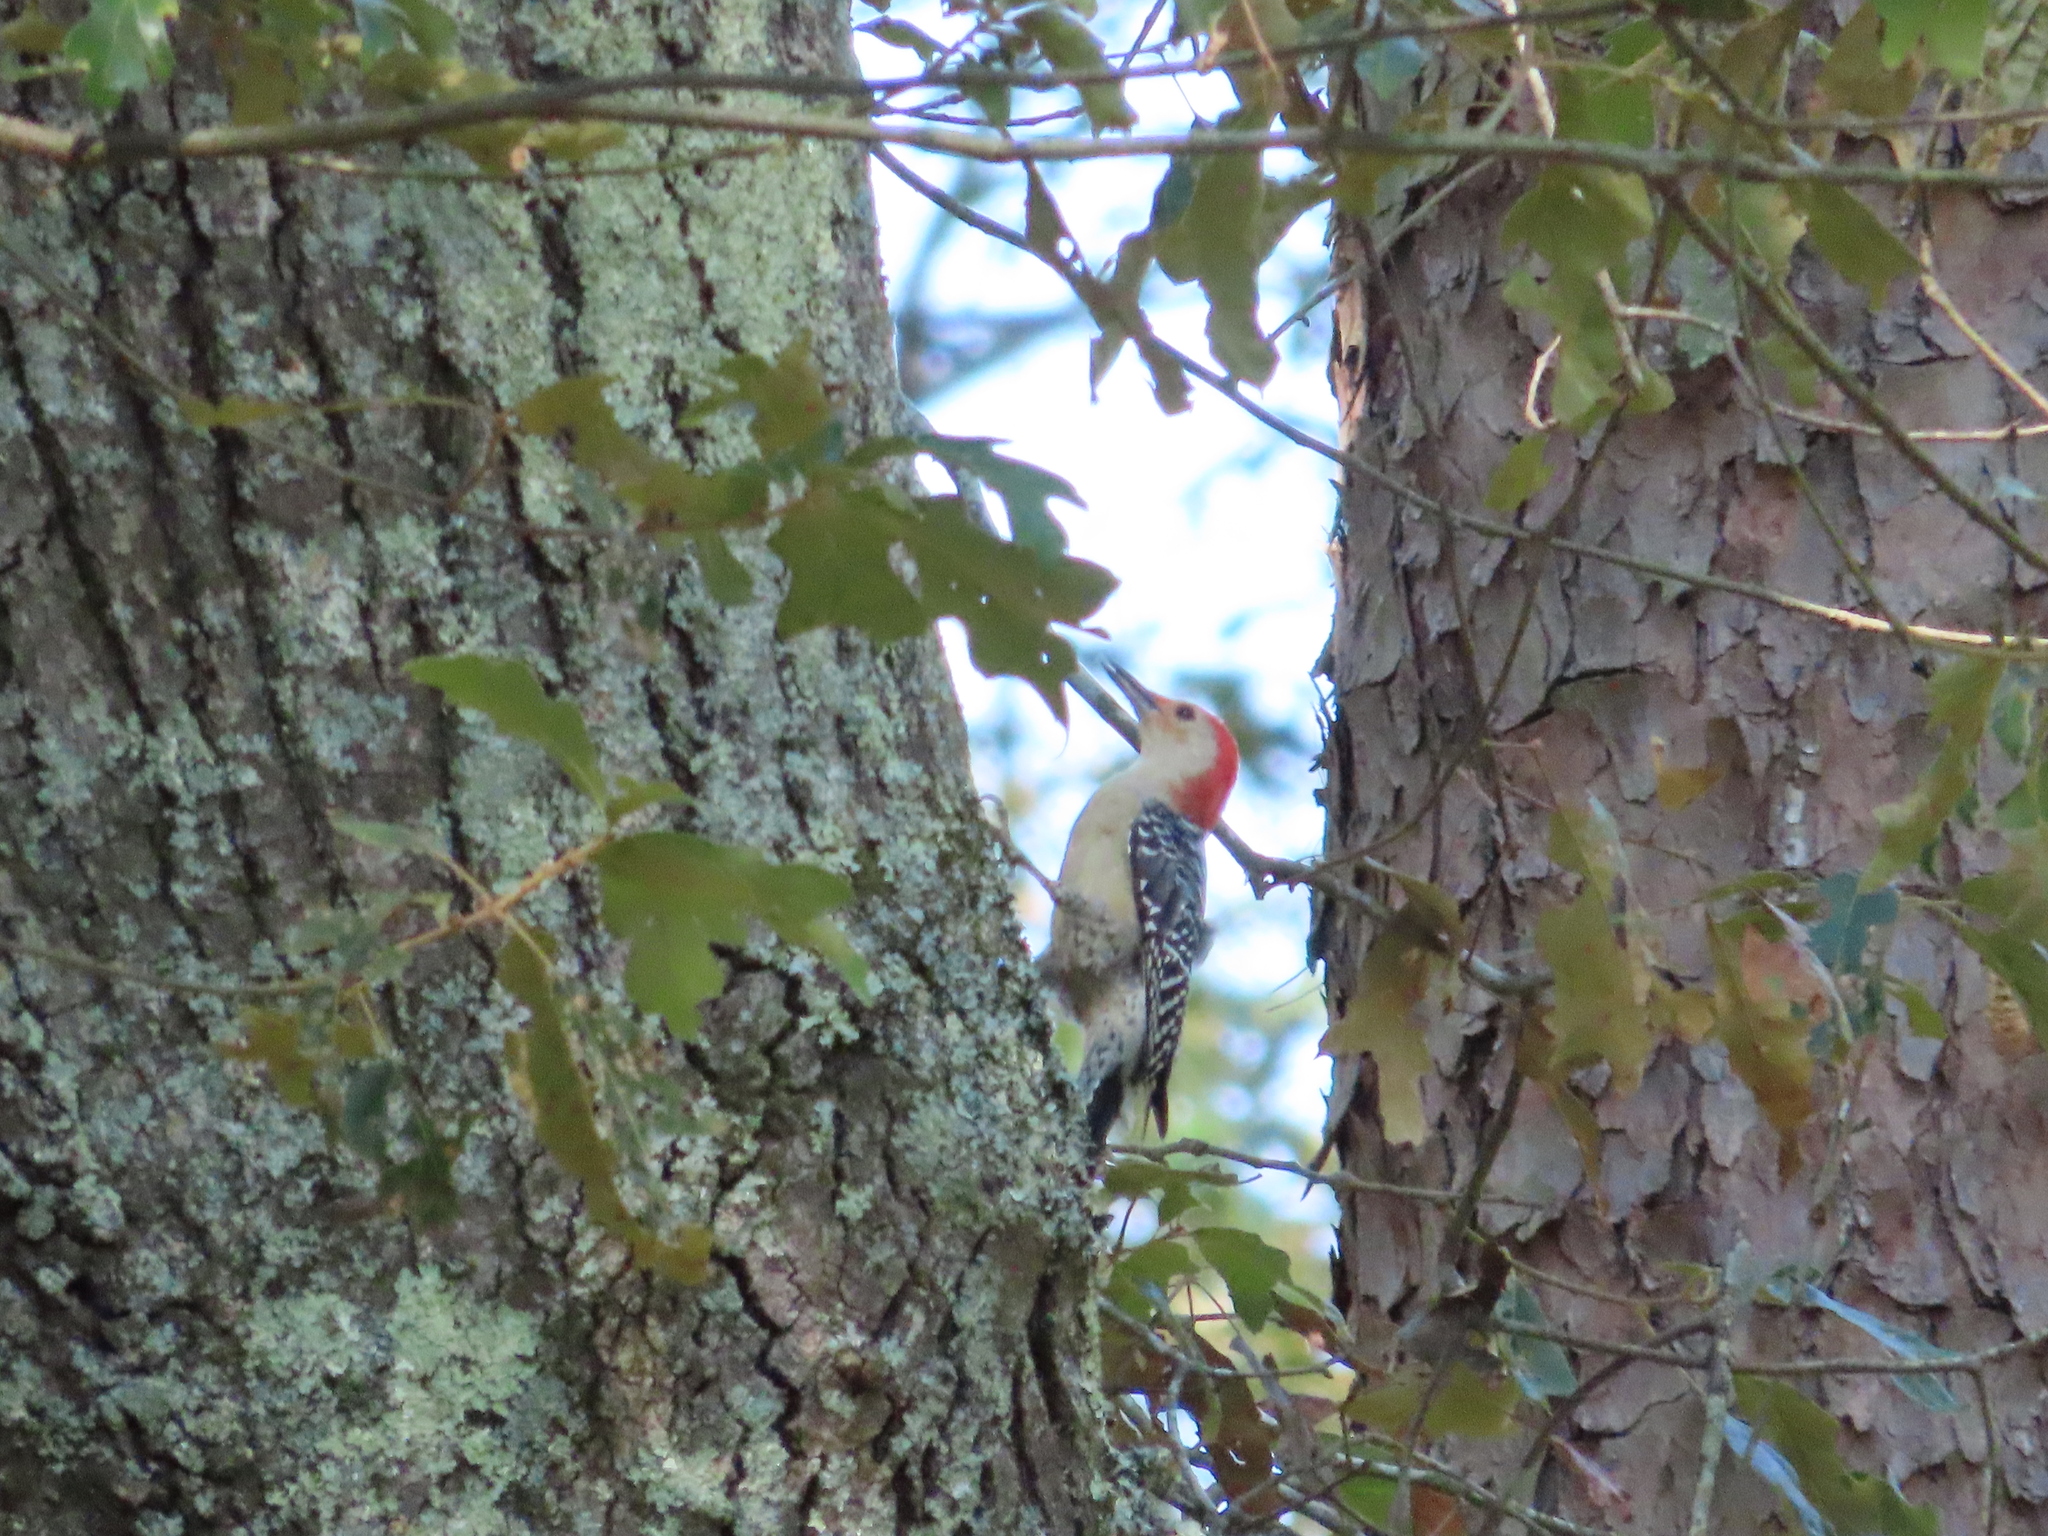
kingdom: Animalia
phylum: Chordata
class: Aves
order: Piciformes
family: Picidae
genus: Melanerpes
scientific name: Melanerpes carolinus
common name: Red-bellied woodpecker
